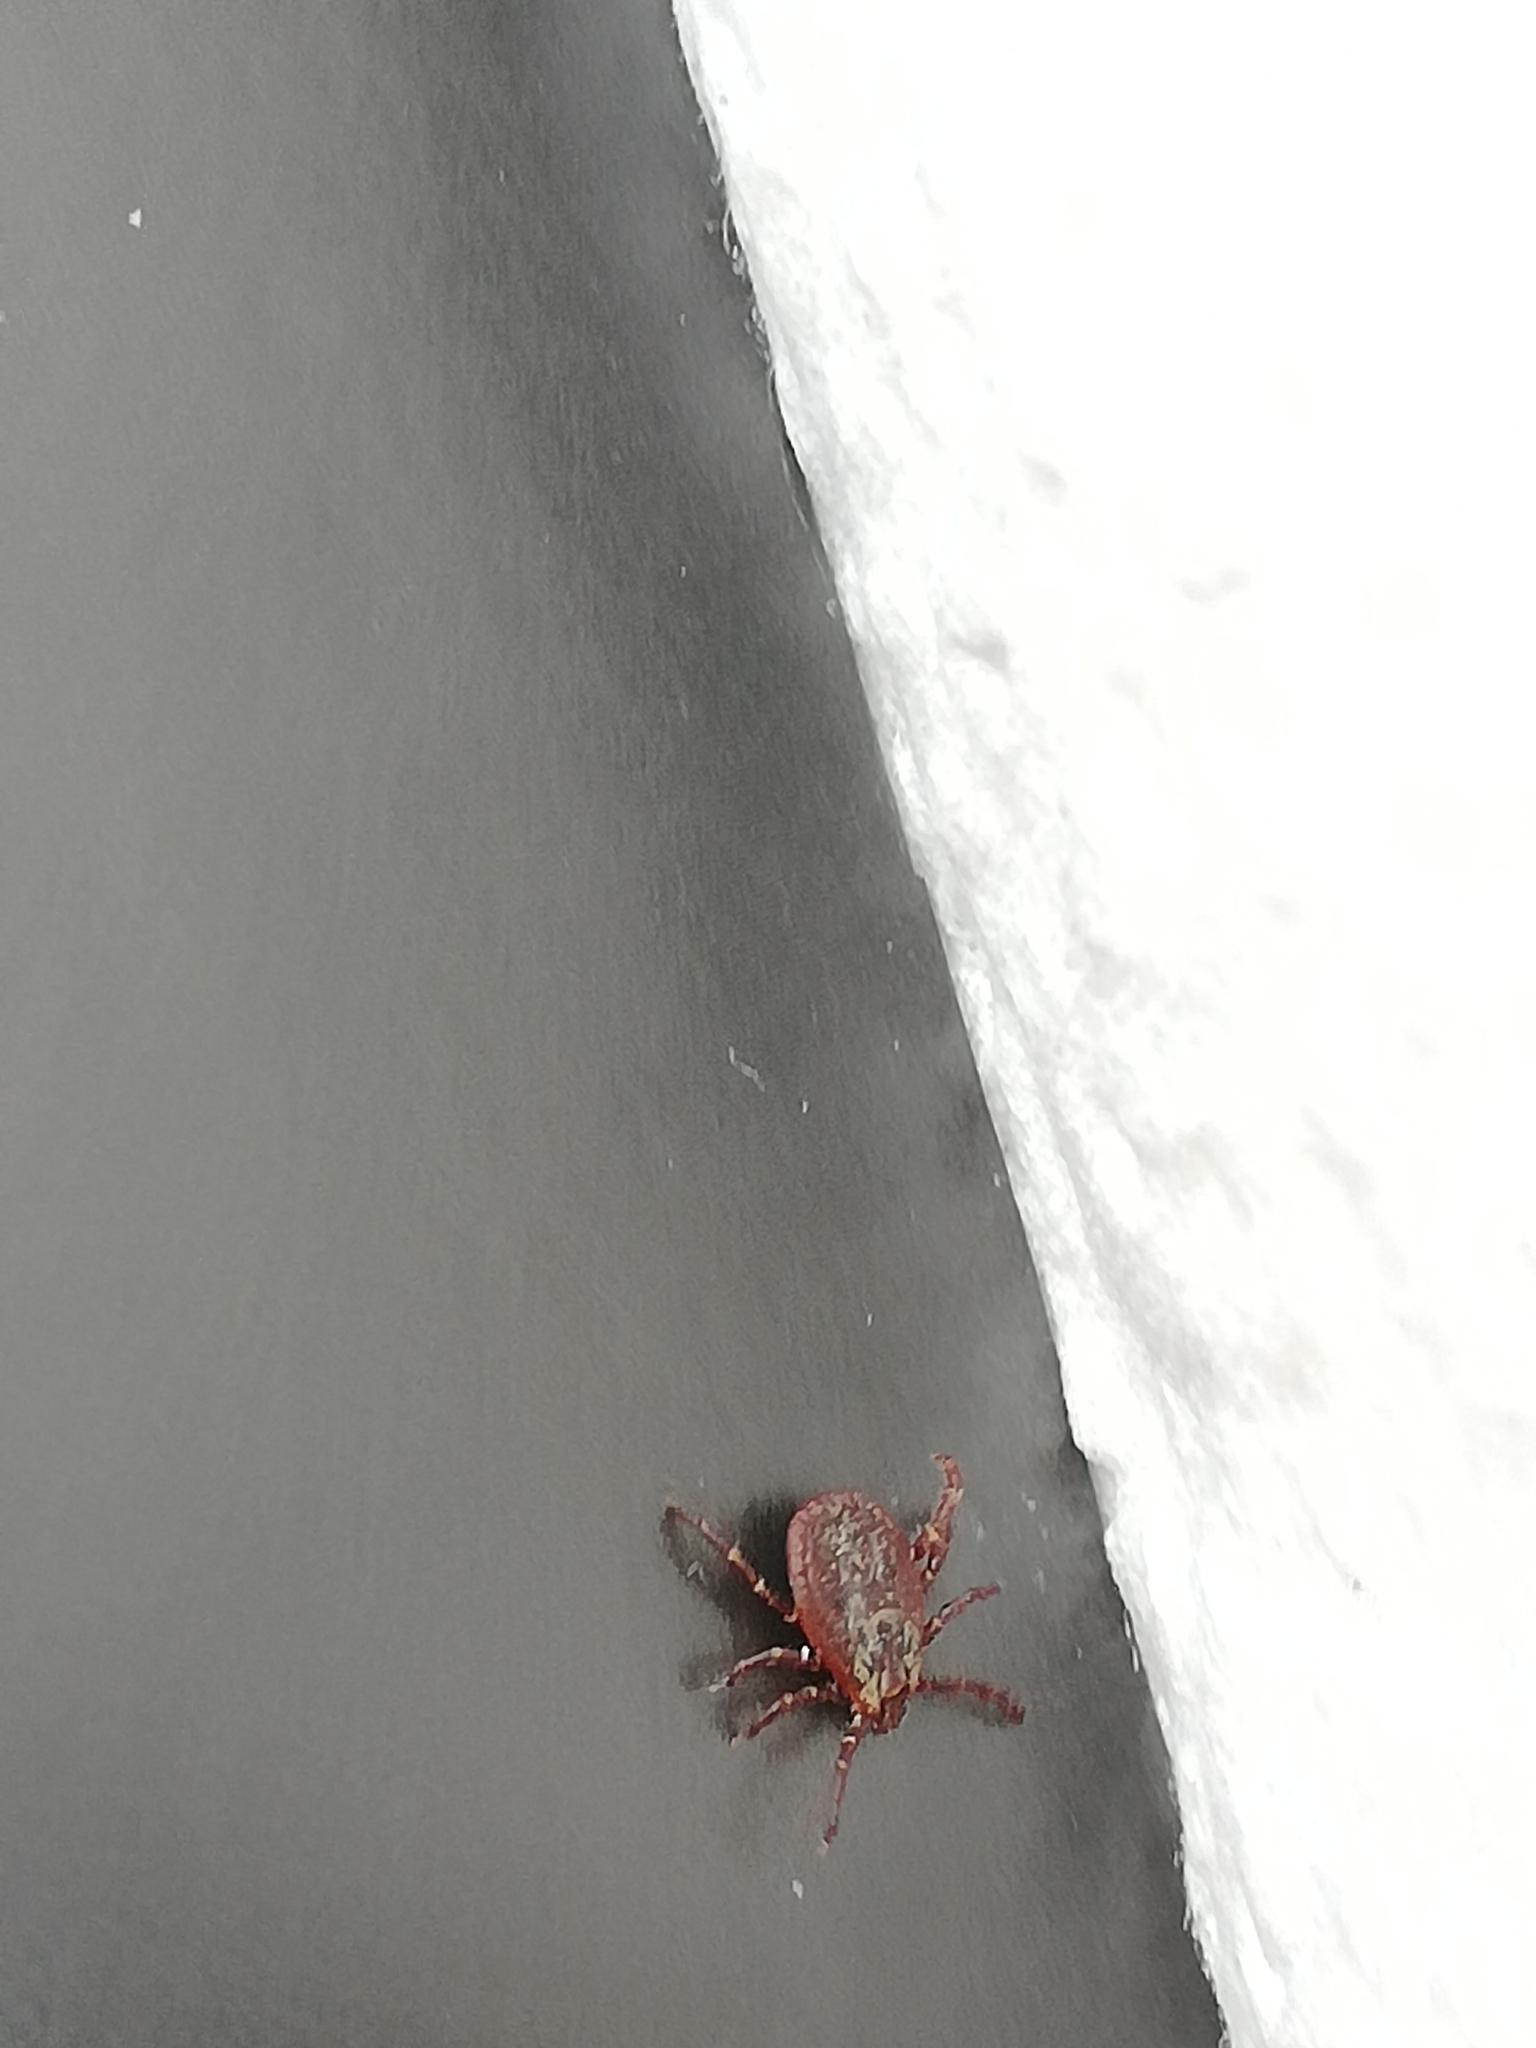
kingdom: Animalia
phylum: Arthropoda
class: Arachnida
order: Ixodida
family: Ixodidae
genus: Dermacentor
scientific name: Dermacentor reticulatus
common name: Ornate cow tick
